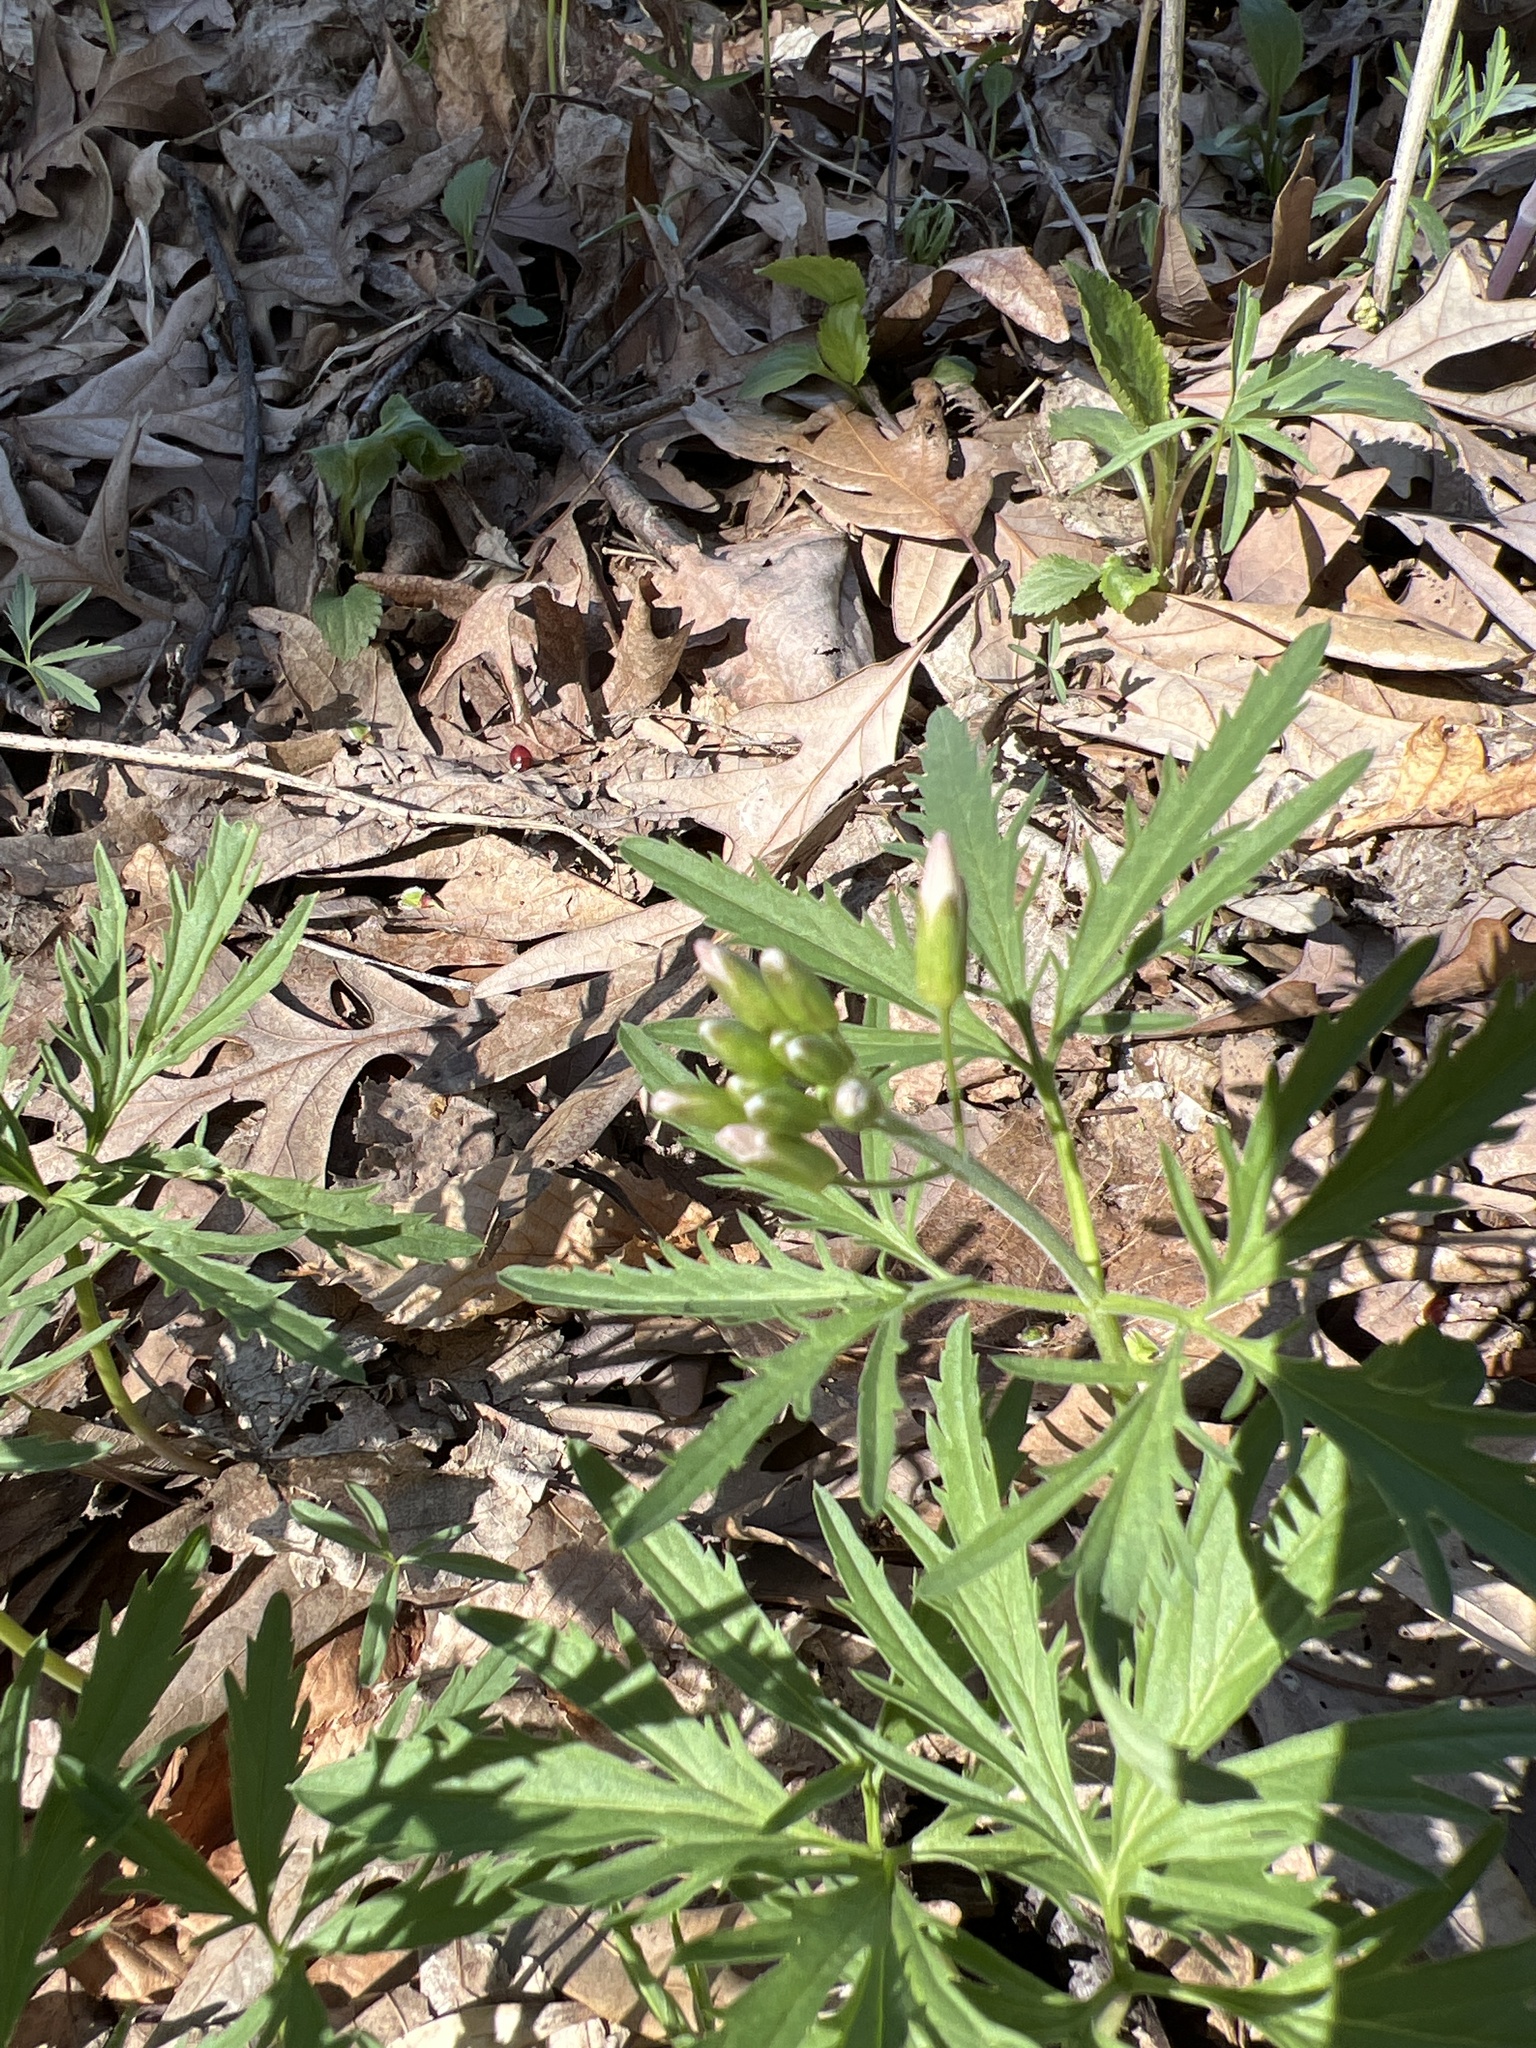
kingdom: Plantae
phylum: Tracheophyta
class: Magnoliopsida
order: Brassicales
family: Brassicaceae
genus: Cardamine
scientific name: Cardamine concatenata
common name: Cut-leaf toothcup
